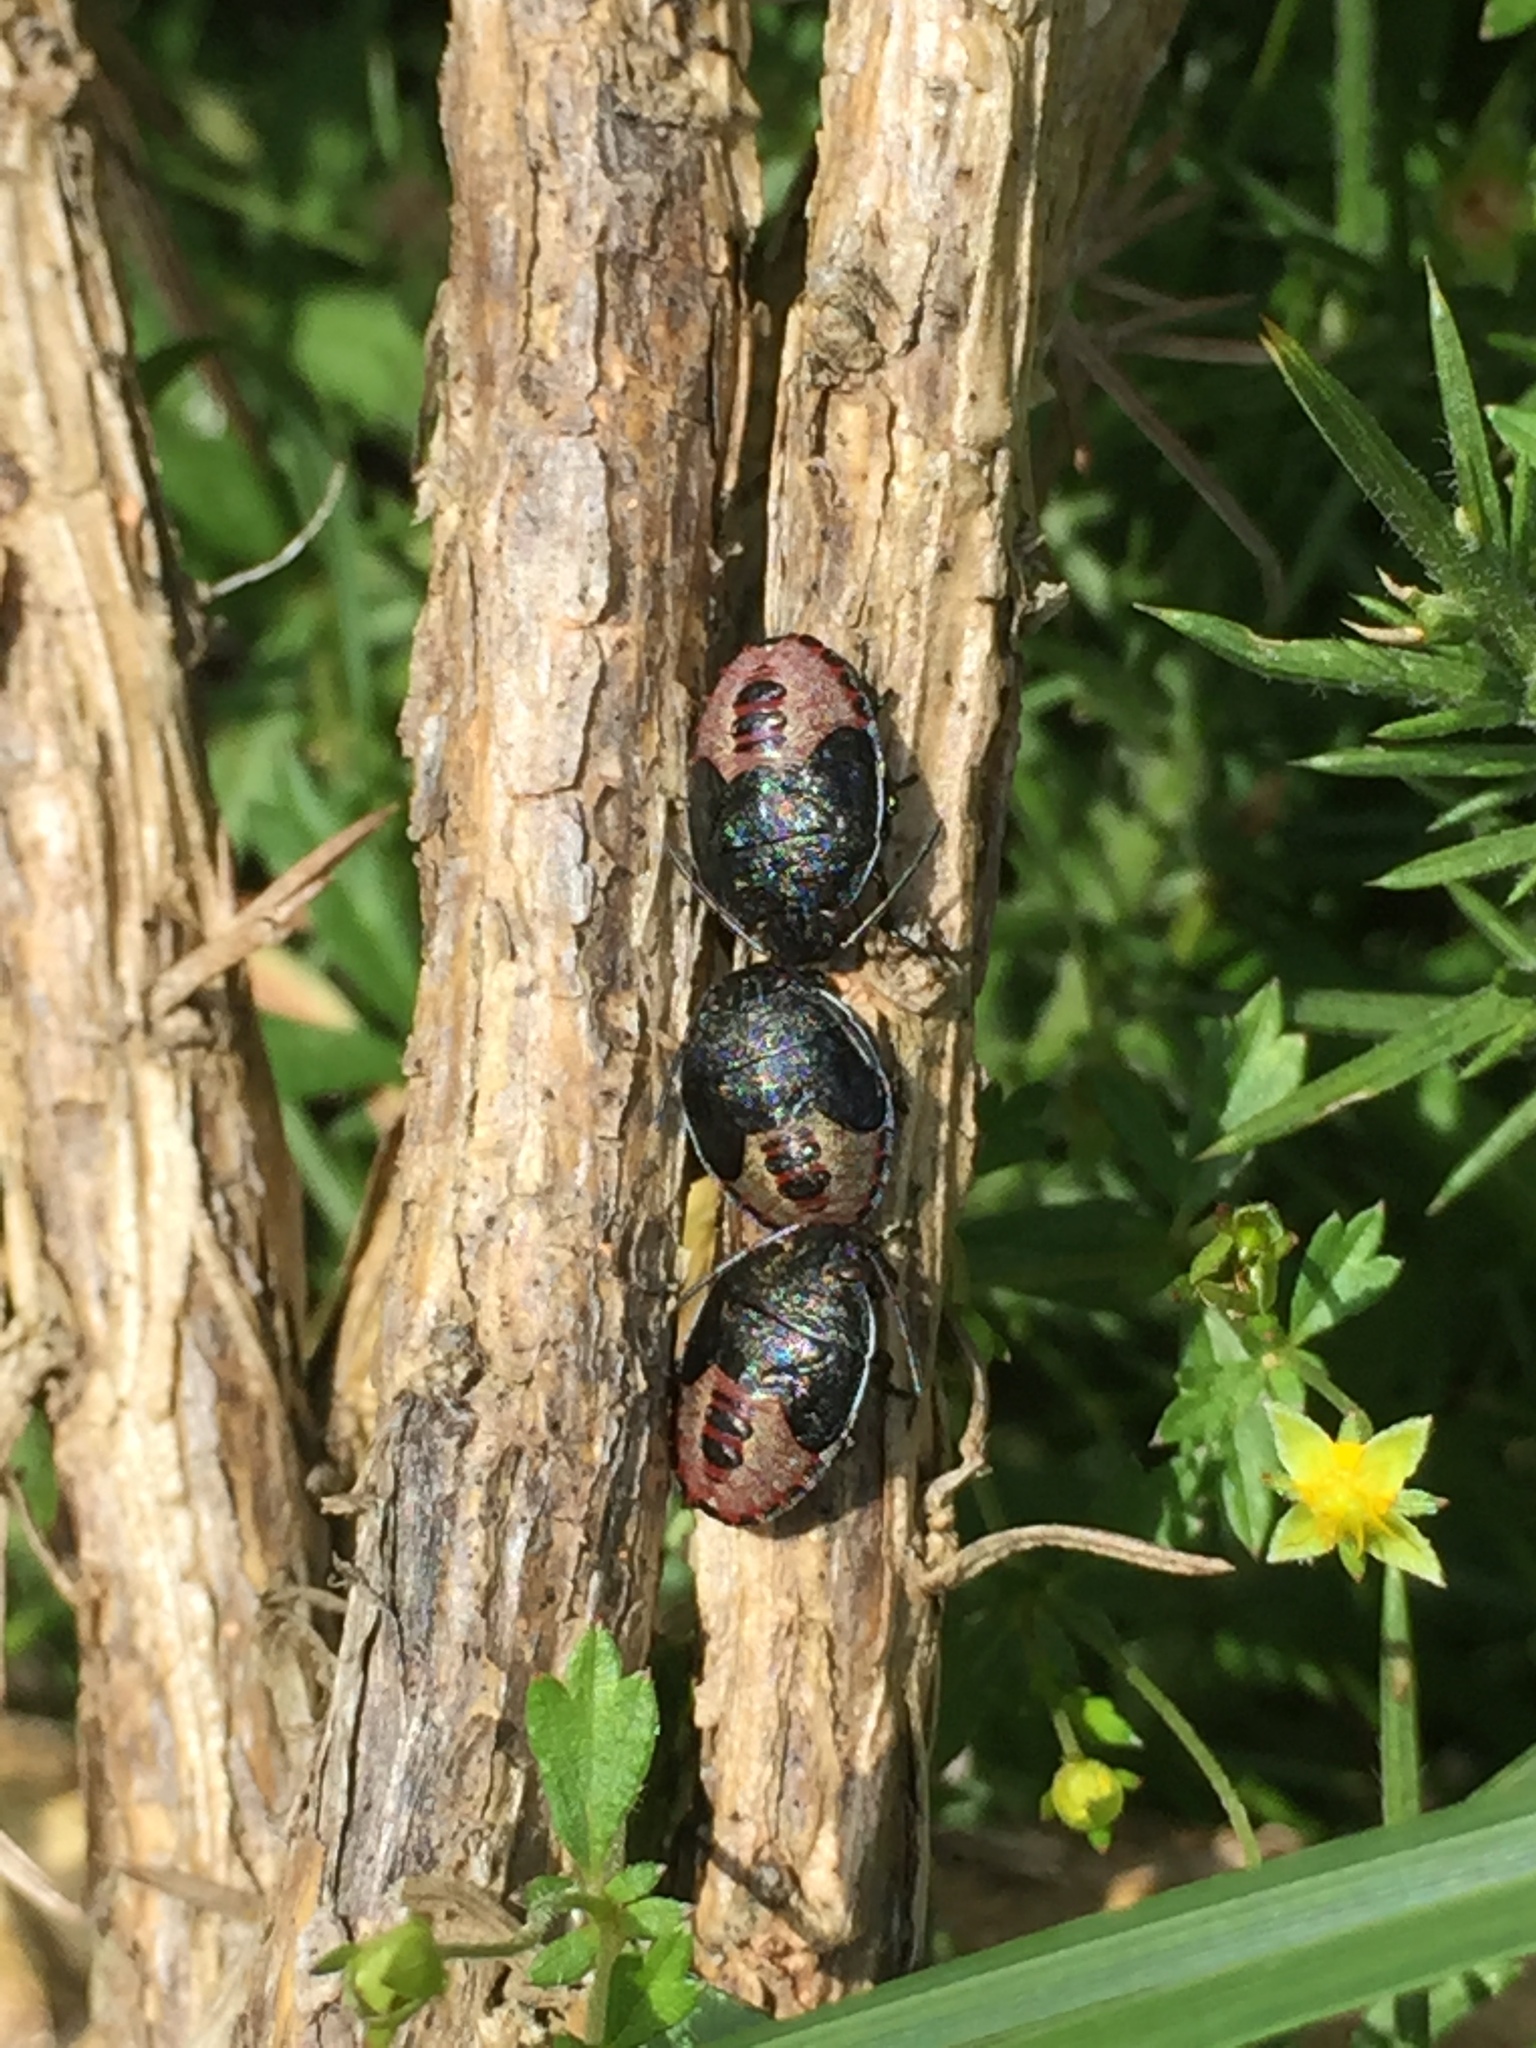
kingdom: Animalia
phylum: Arthropoda
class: Insecta
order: Hemiptera
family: Pentatomidae
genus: Piezodorus
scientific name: Piezodorus lituratus
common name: Stink bug
